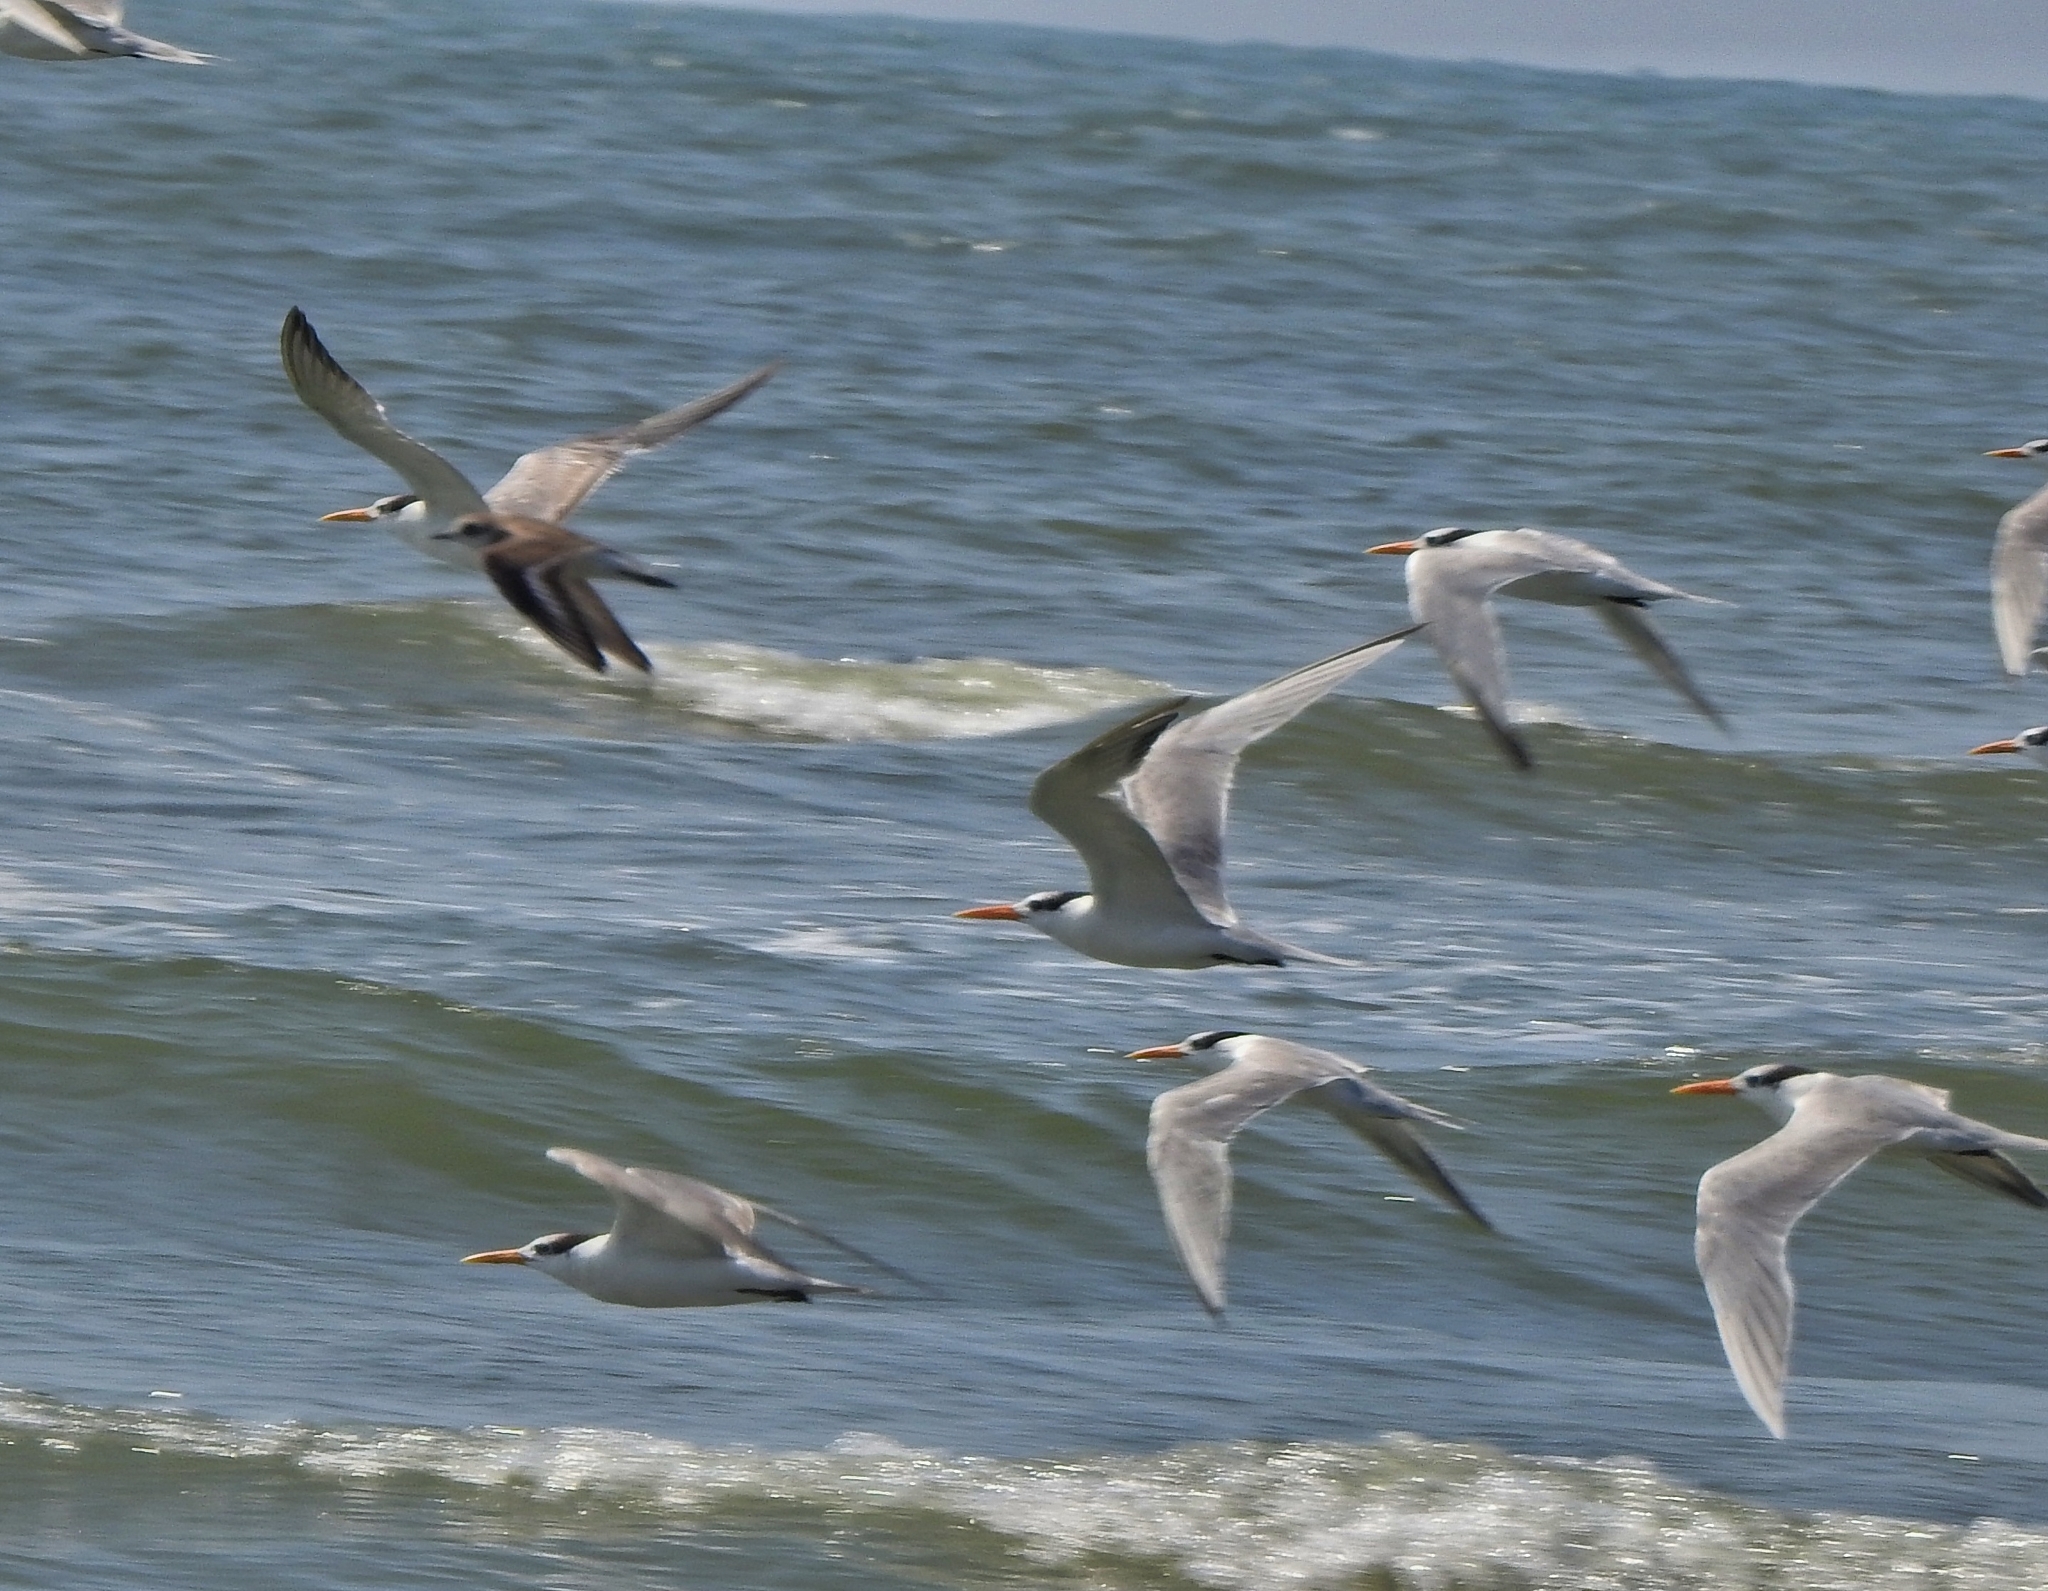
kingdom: Animalia
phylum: Chordata
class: Aves
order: Charadriiformes
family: Laridae
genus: Thalasseus
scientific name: Thalasseus bengalensis
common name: Lesser crested tern
